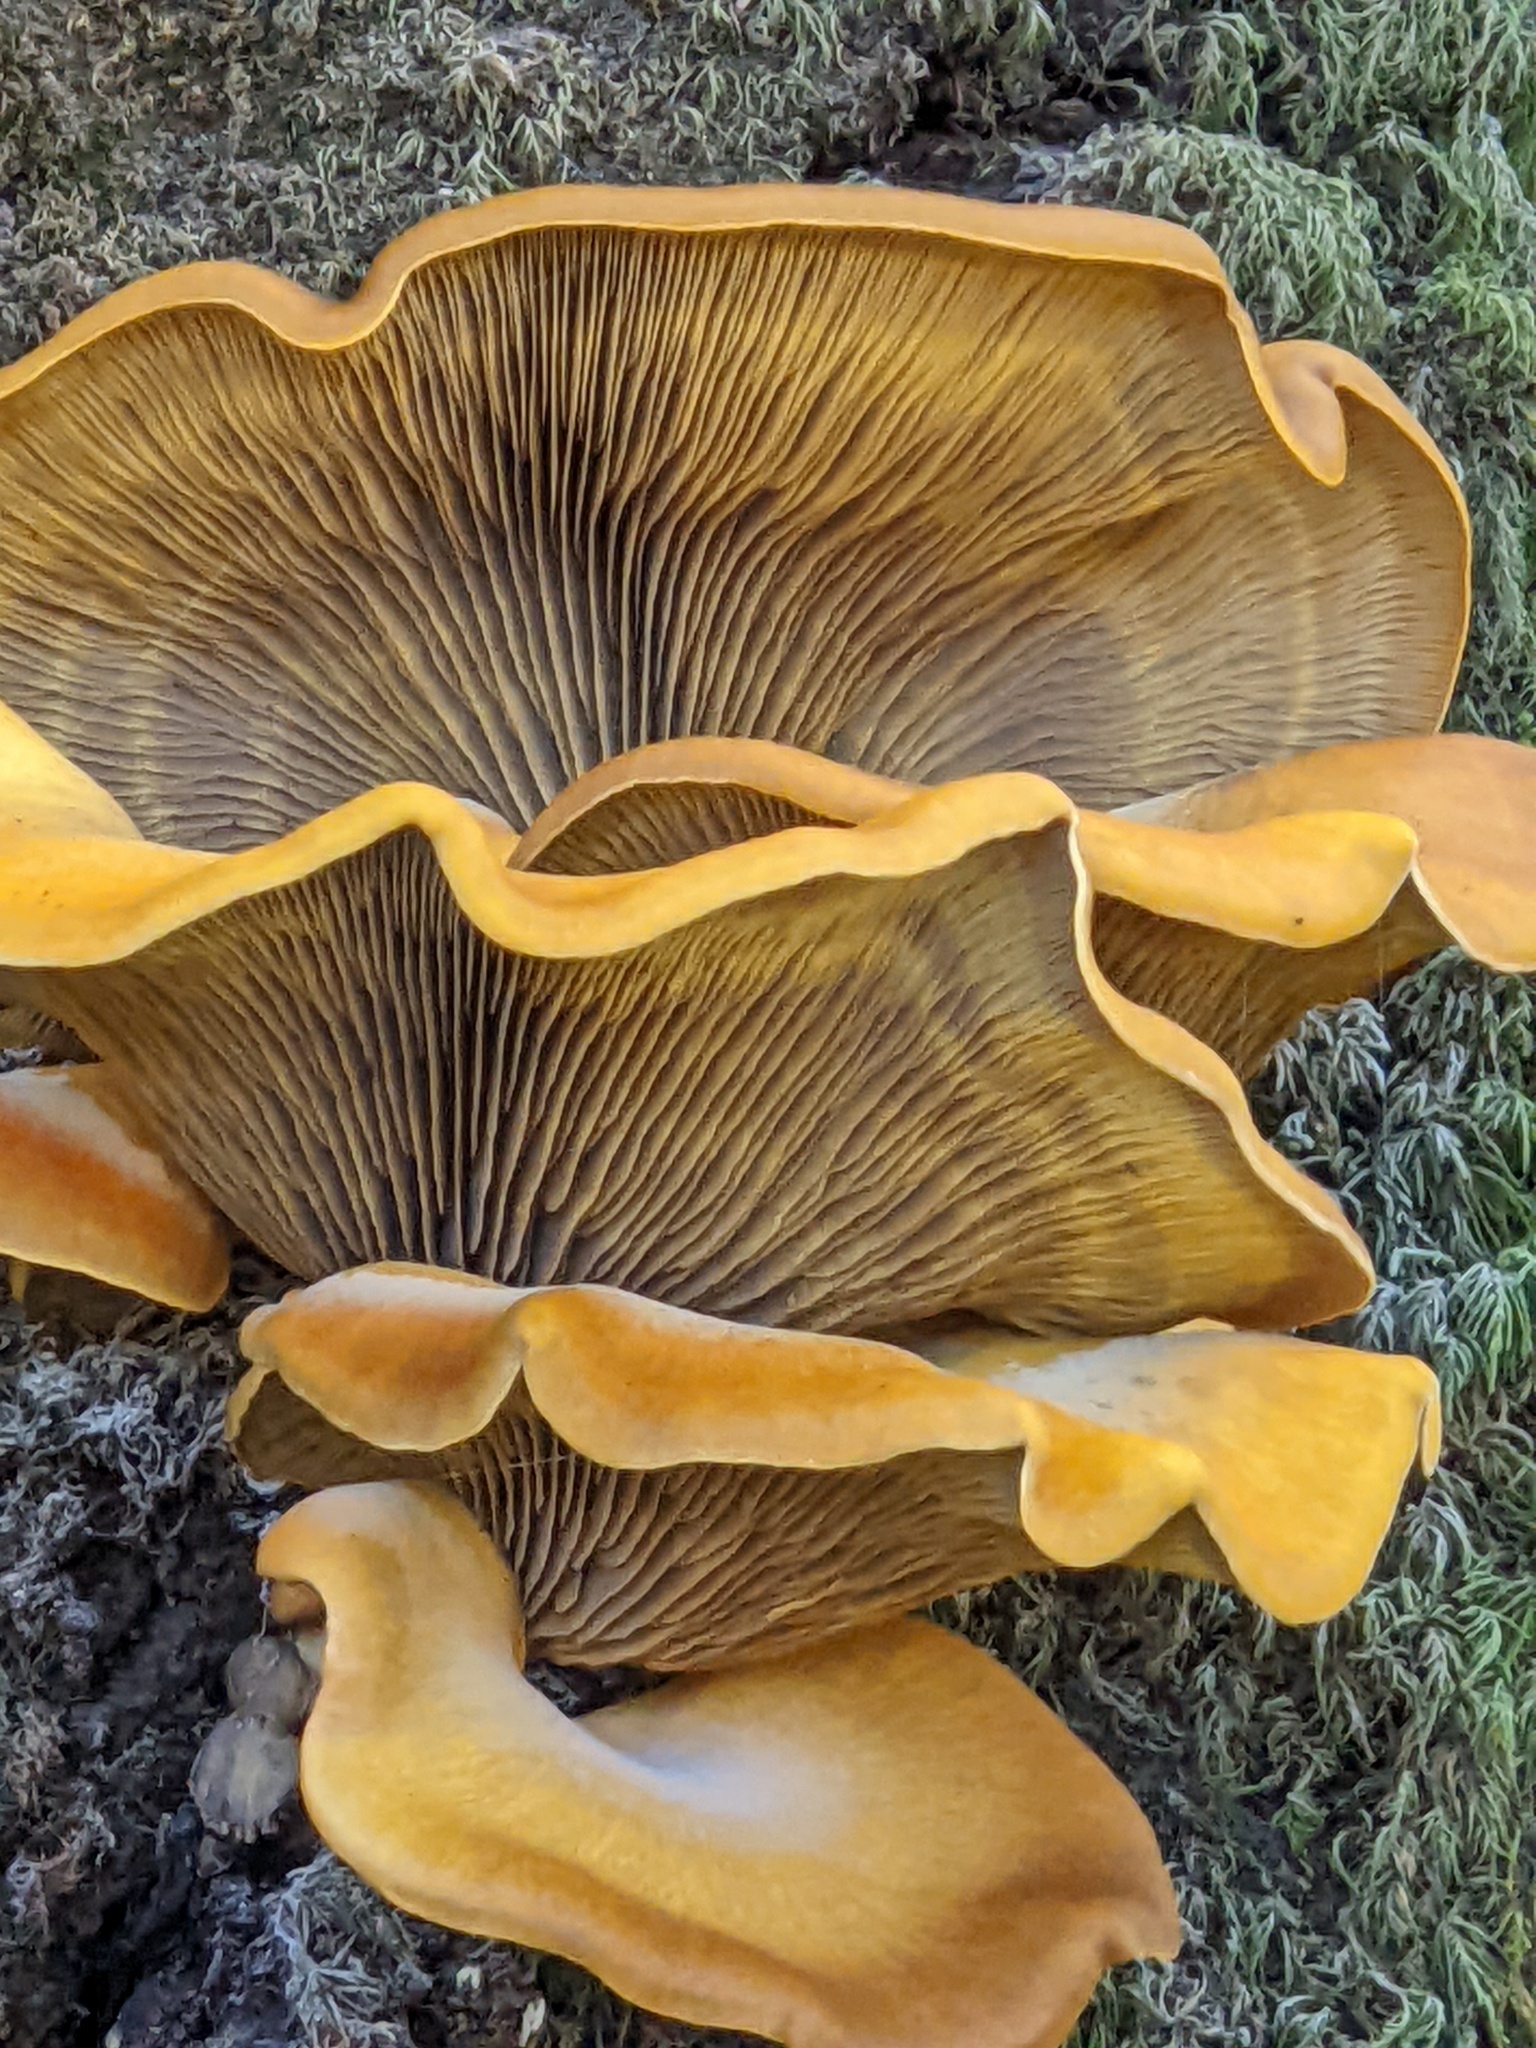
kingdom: Fungi
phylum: Basidiomycota
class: Agaricomycetes
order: Agaricales
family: Omphalotaceae
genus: Omphalotus
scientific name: Omphalotus olivascens
